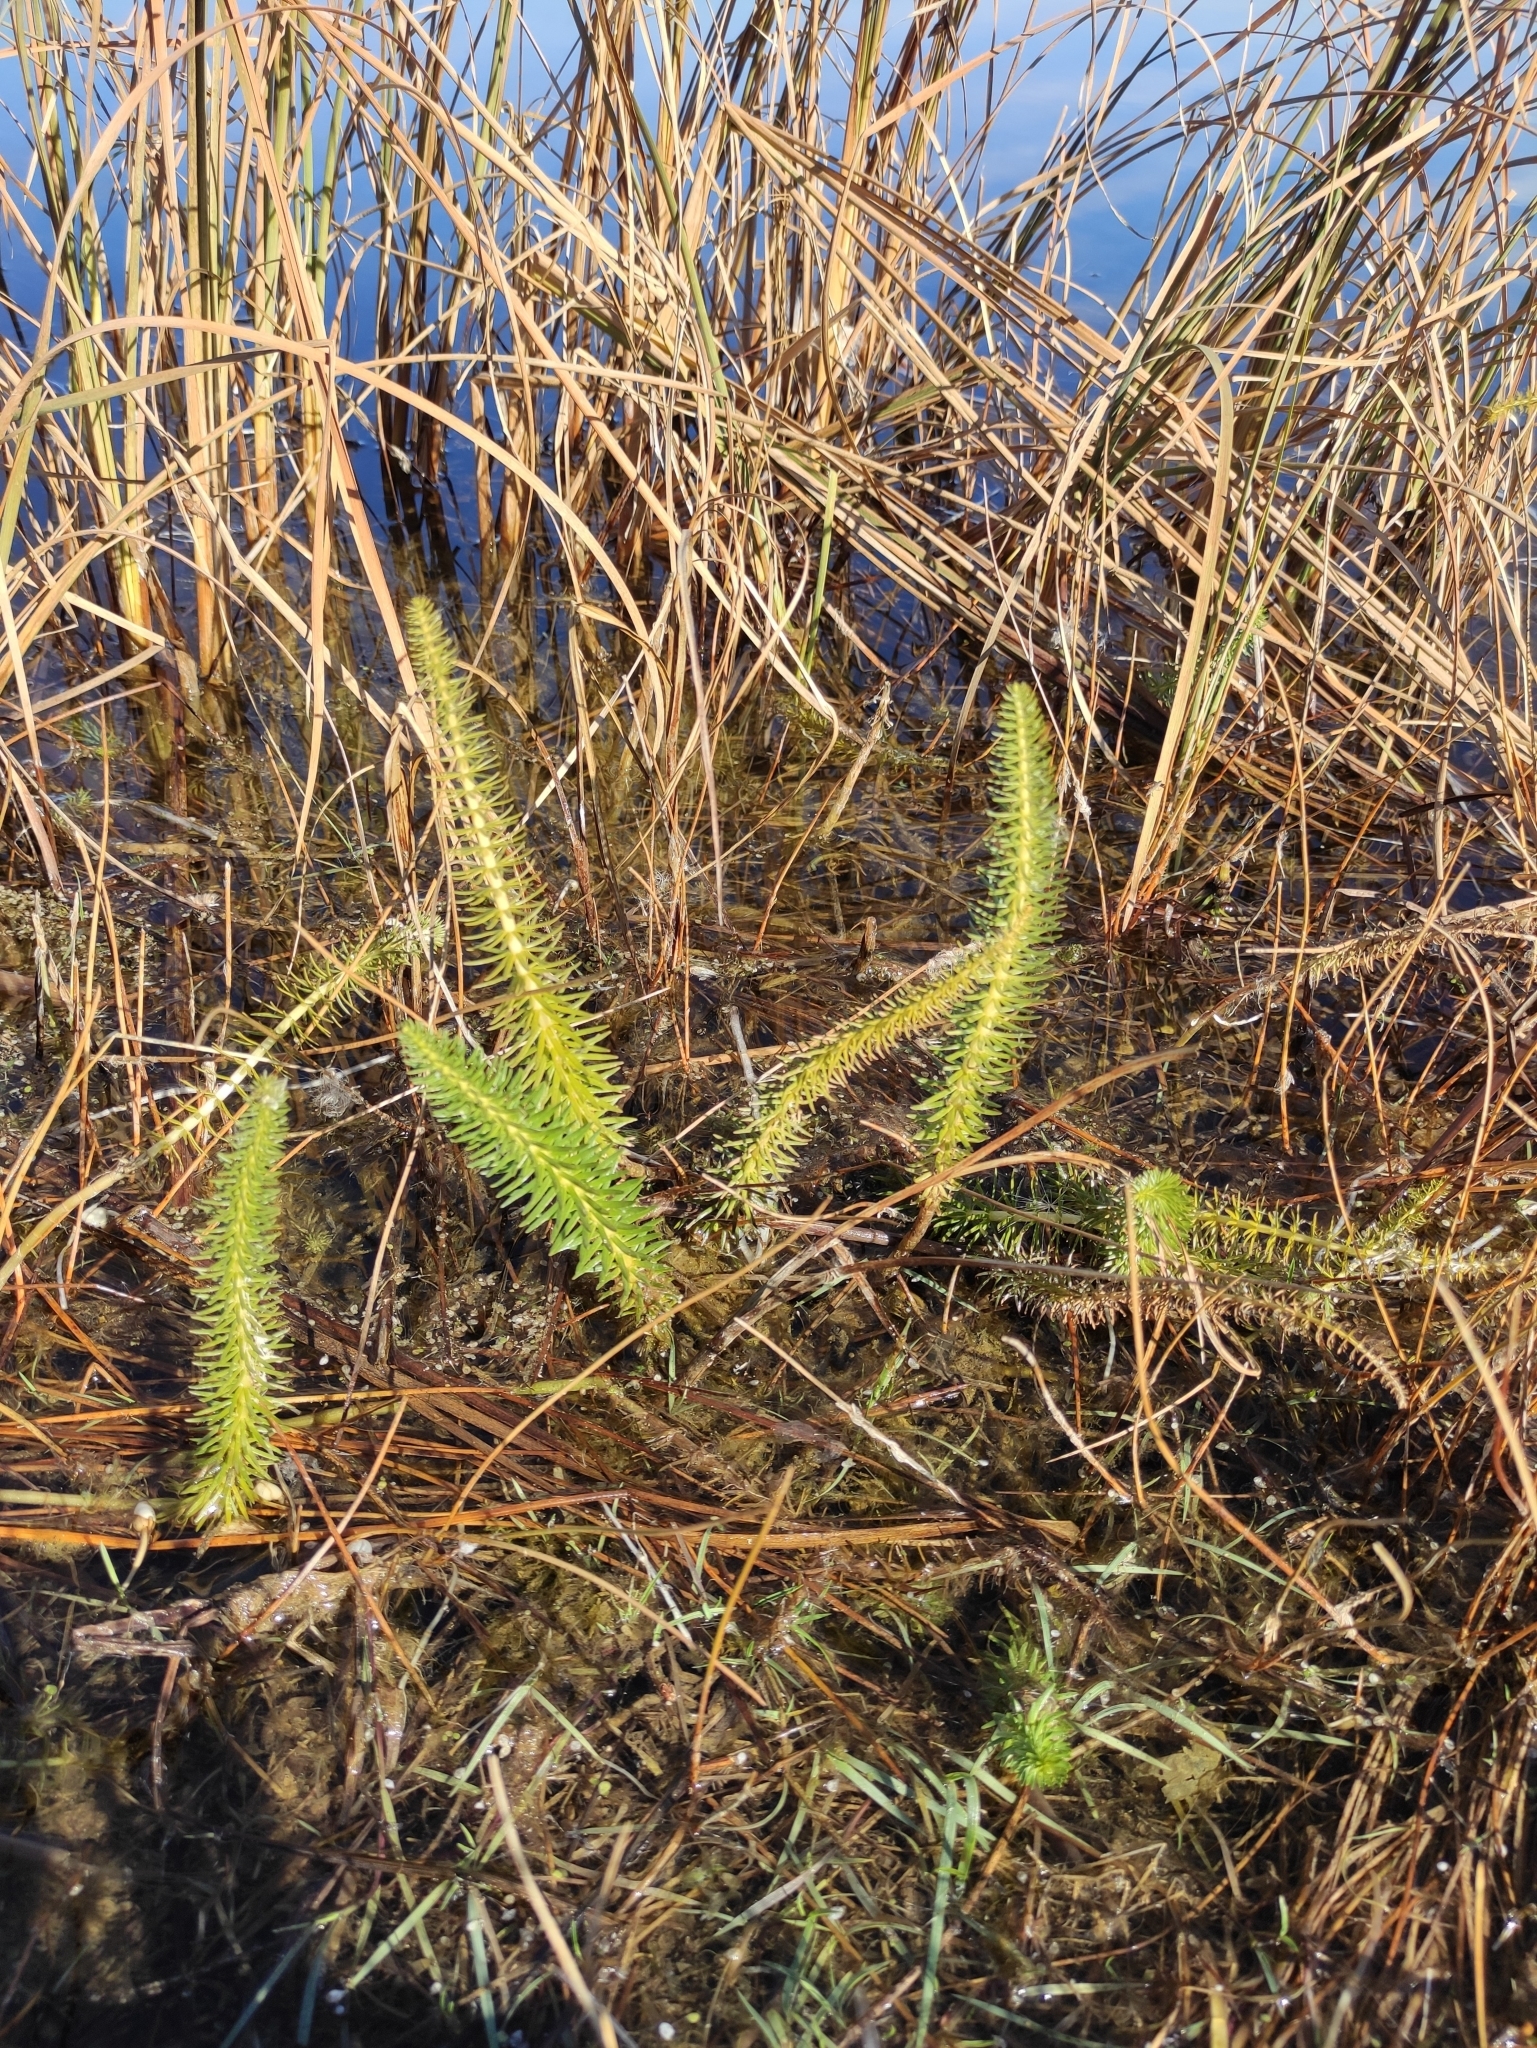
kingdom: Plantae
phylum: Tracheophyta
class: Magnoliopsida
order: Lamiales
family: Plantaginaceae
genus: Hippuris
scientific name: Hippuris vulgaris
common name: Mare's-tail
